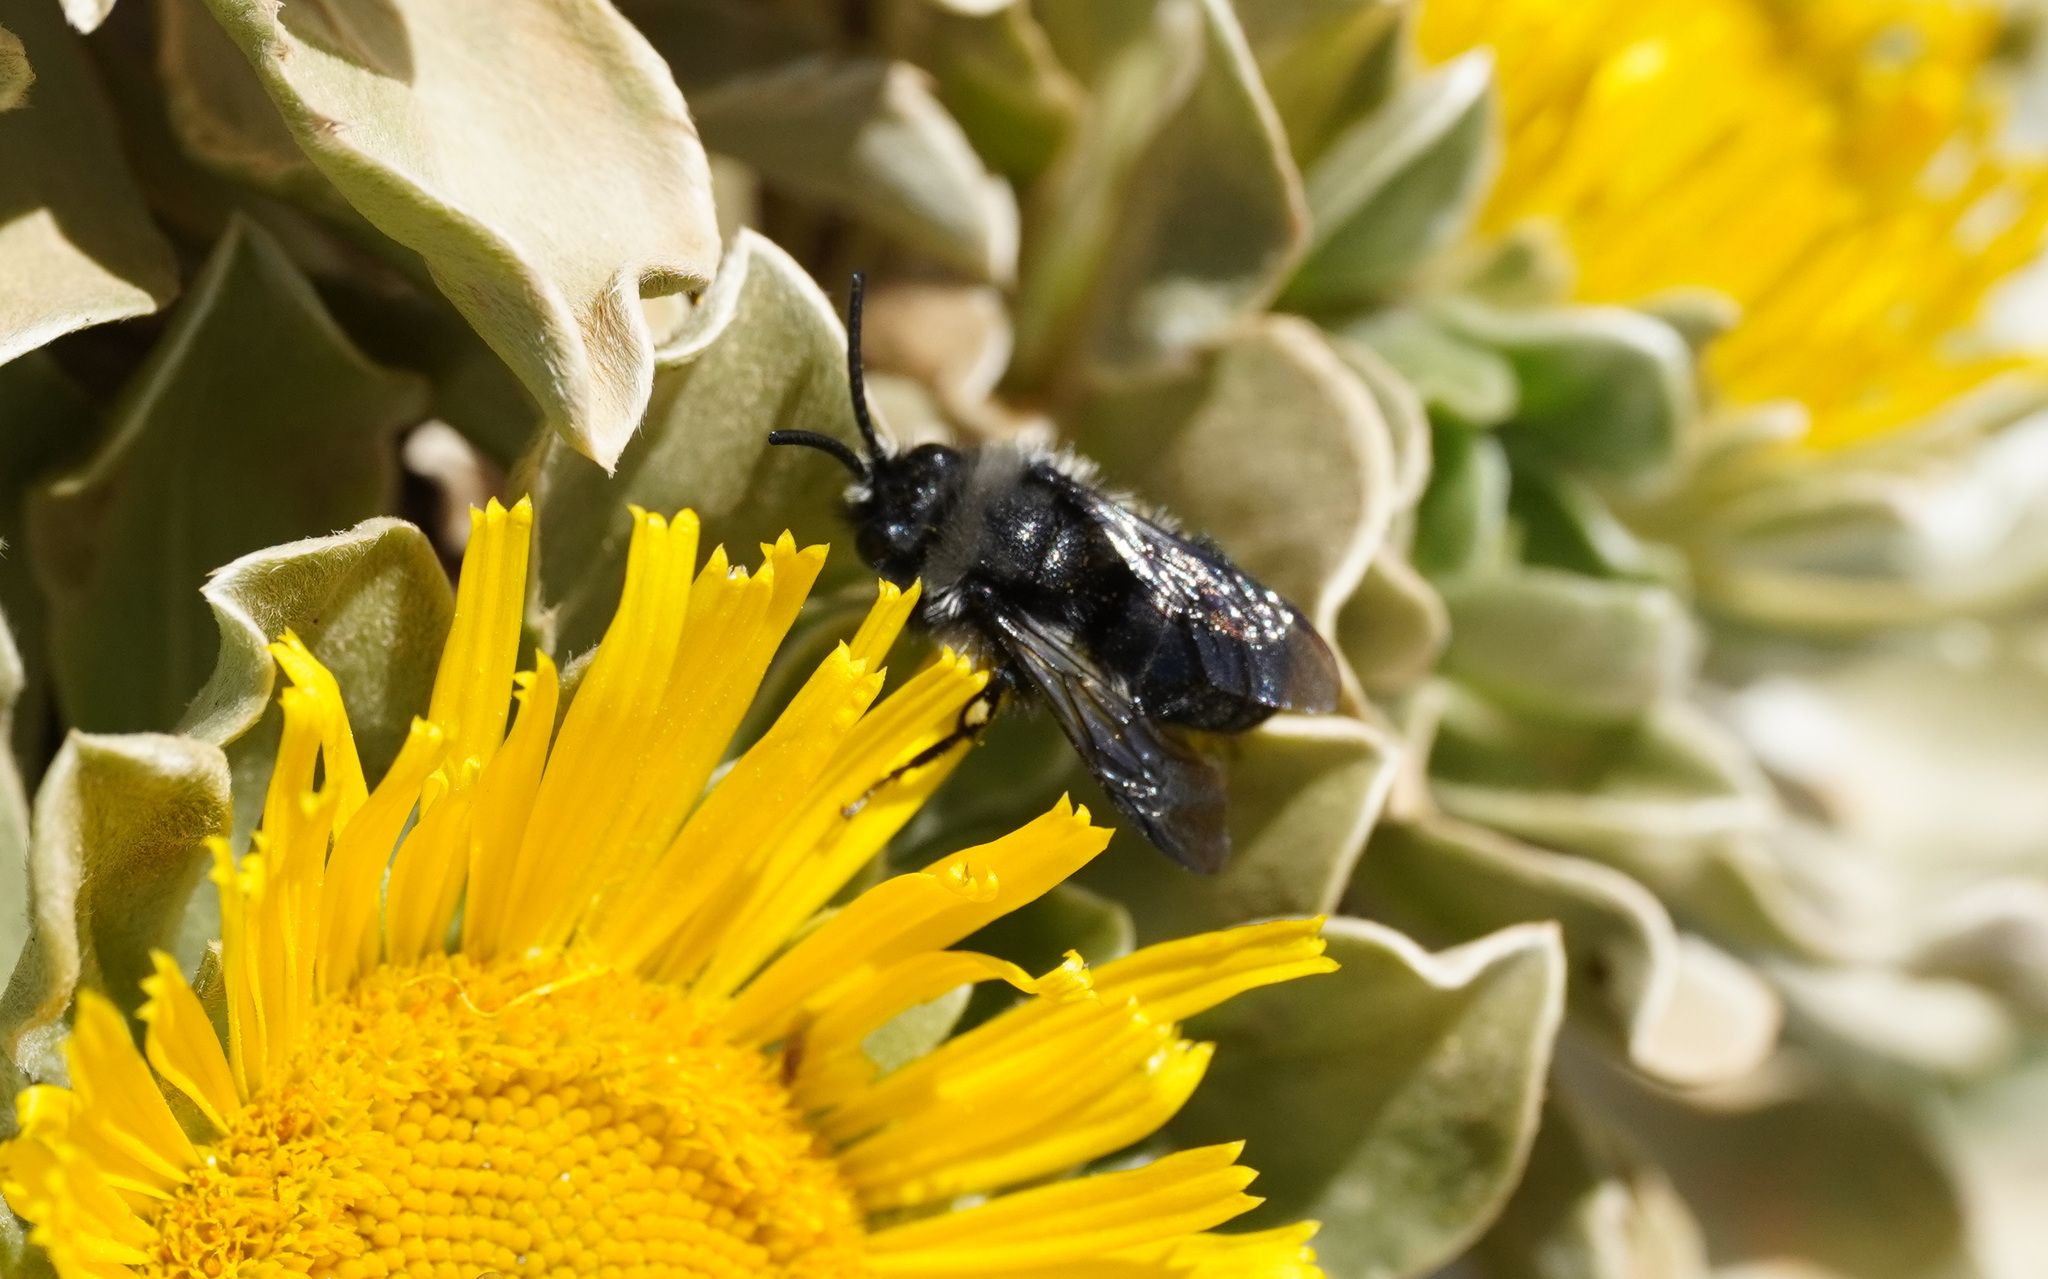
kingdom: Animalia
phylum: Arthropoda
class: Insecta
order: Hymenoptera
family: Apidae
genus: Melecta
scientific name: Melecta caroli
